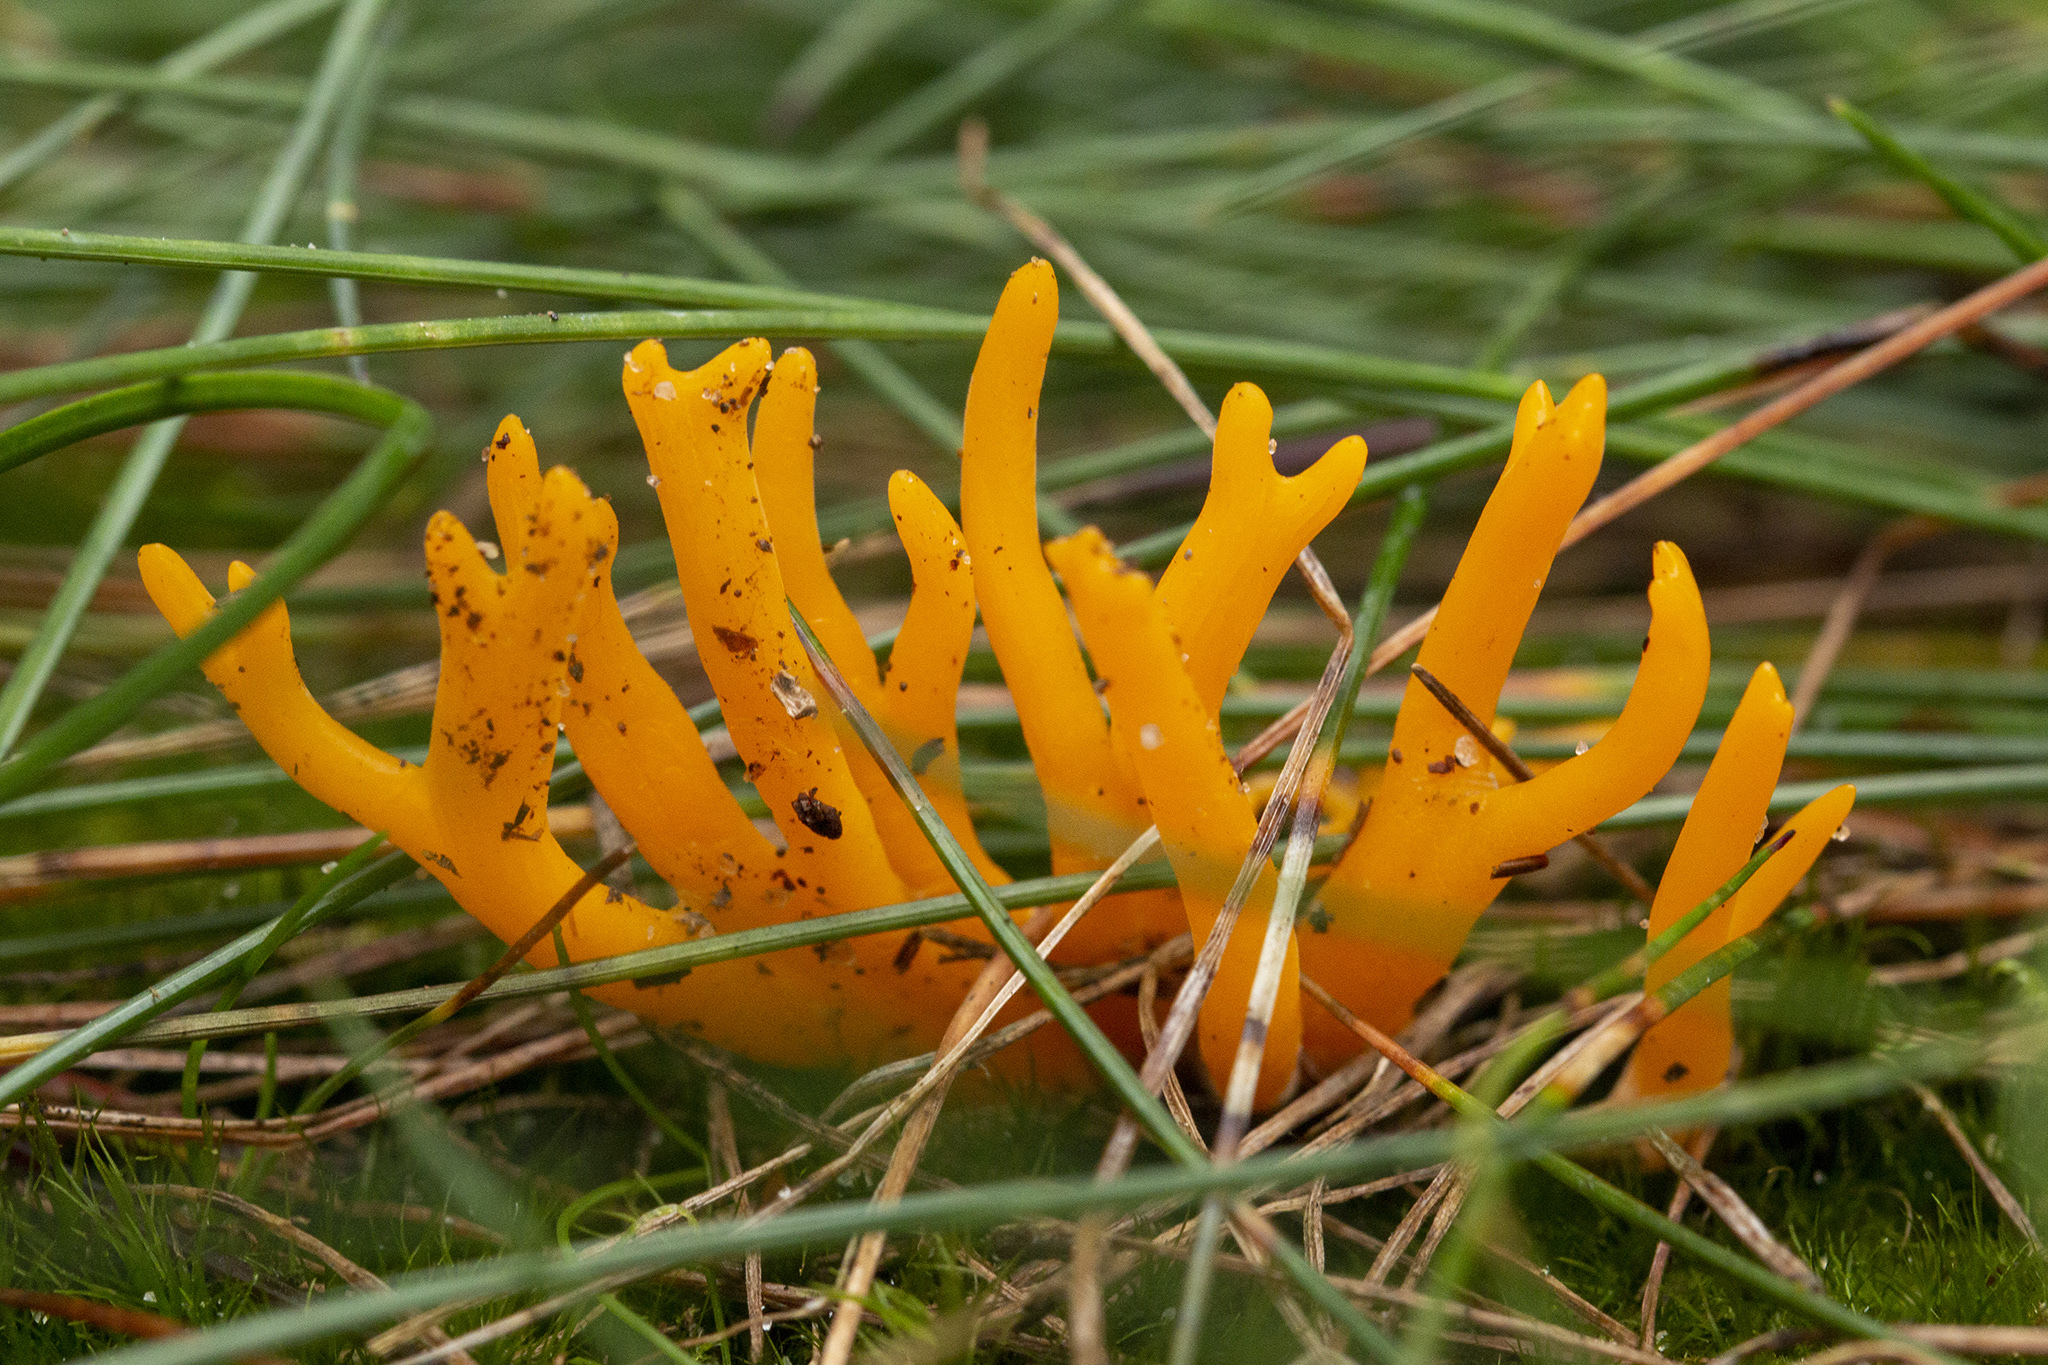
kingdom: Fungi
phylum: Basidiomycota
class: Dacrymycetes
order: Dacrymycetales
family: Dacrymycetaceae
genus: Calocera
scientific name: Calocera viscosa
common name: Yellow stagshorn
